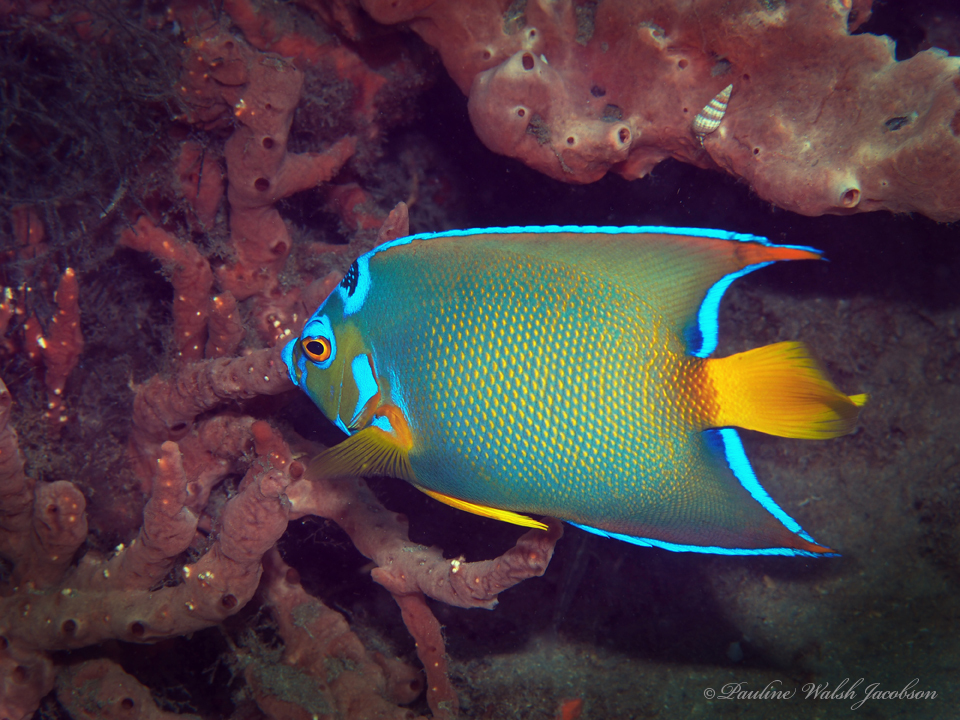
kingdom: Animalia
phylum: Chordata
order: Perciformes
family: Pomacanthidae
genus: Holacanthus
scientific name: Holacanthus ciliaris
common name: Queen angelfish
